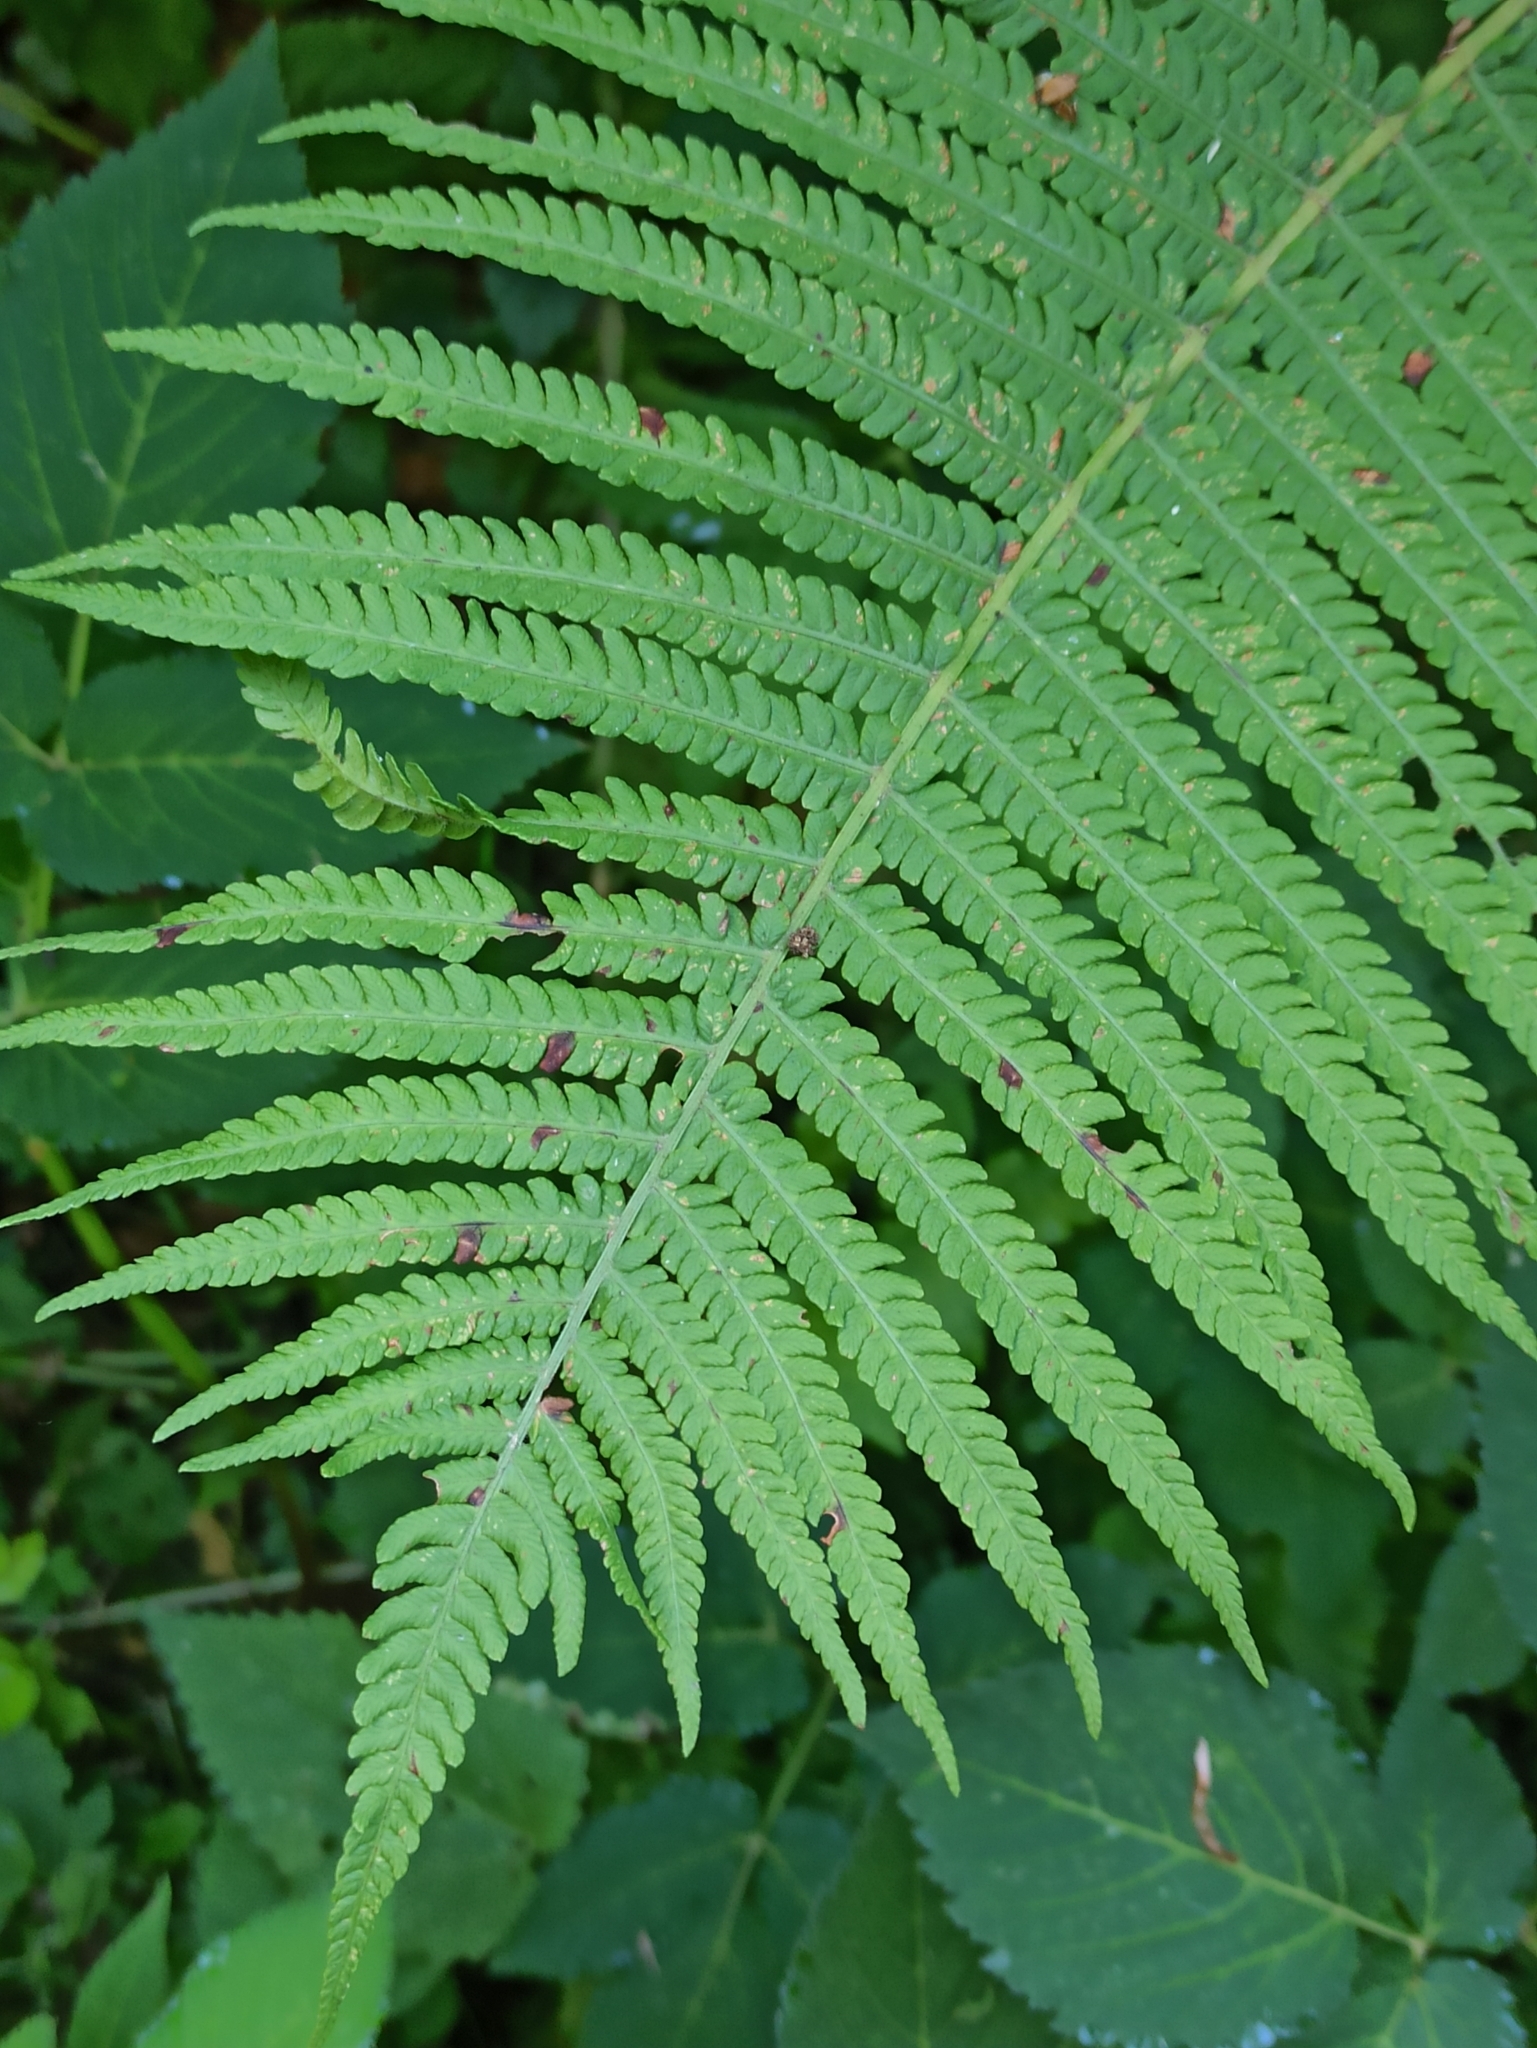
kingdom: Plantae
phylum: Tracheophyta
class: Polypodiopsida
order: Polypodiales
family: Onocleaceae
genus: Matteuccia
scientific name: Matteuccia struthiopteris
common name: Ostrich fern
